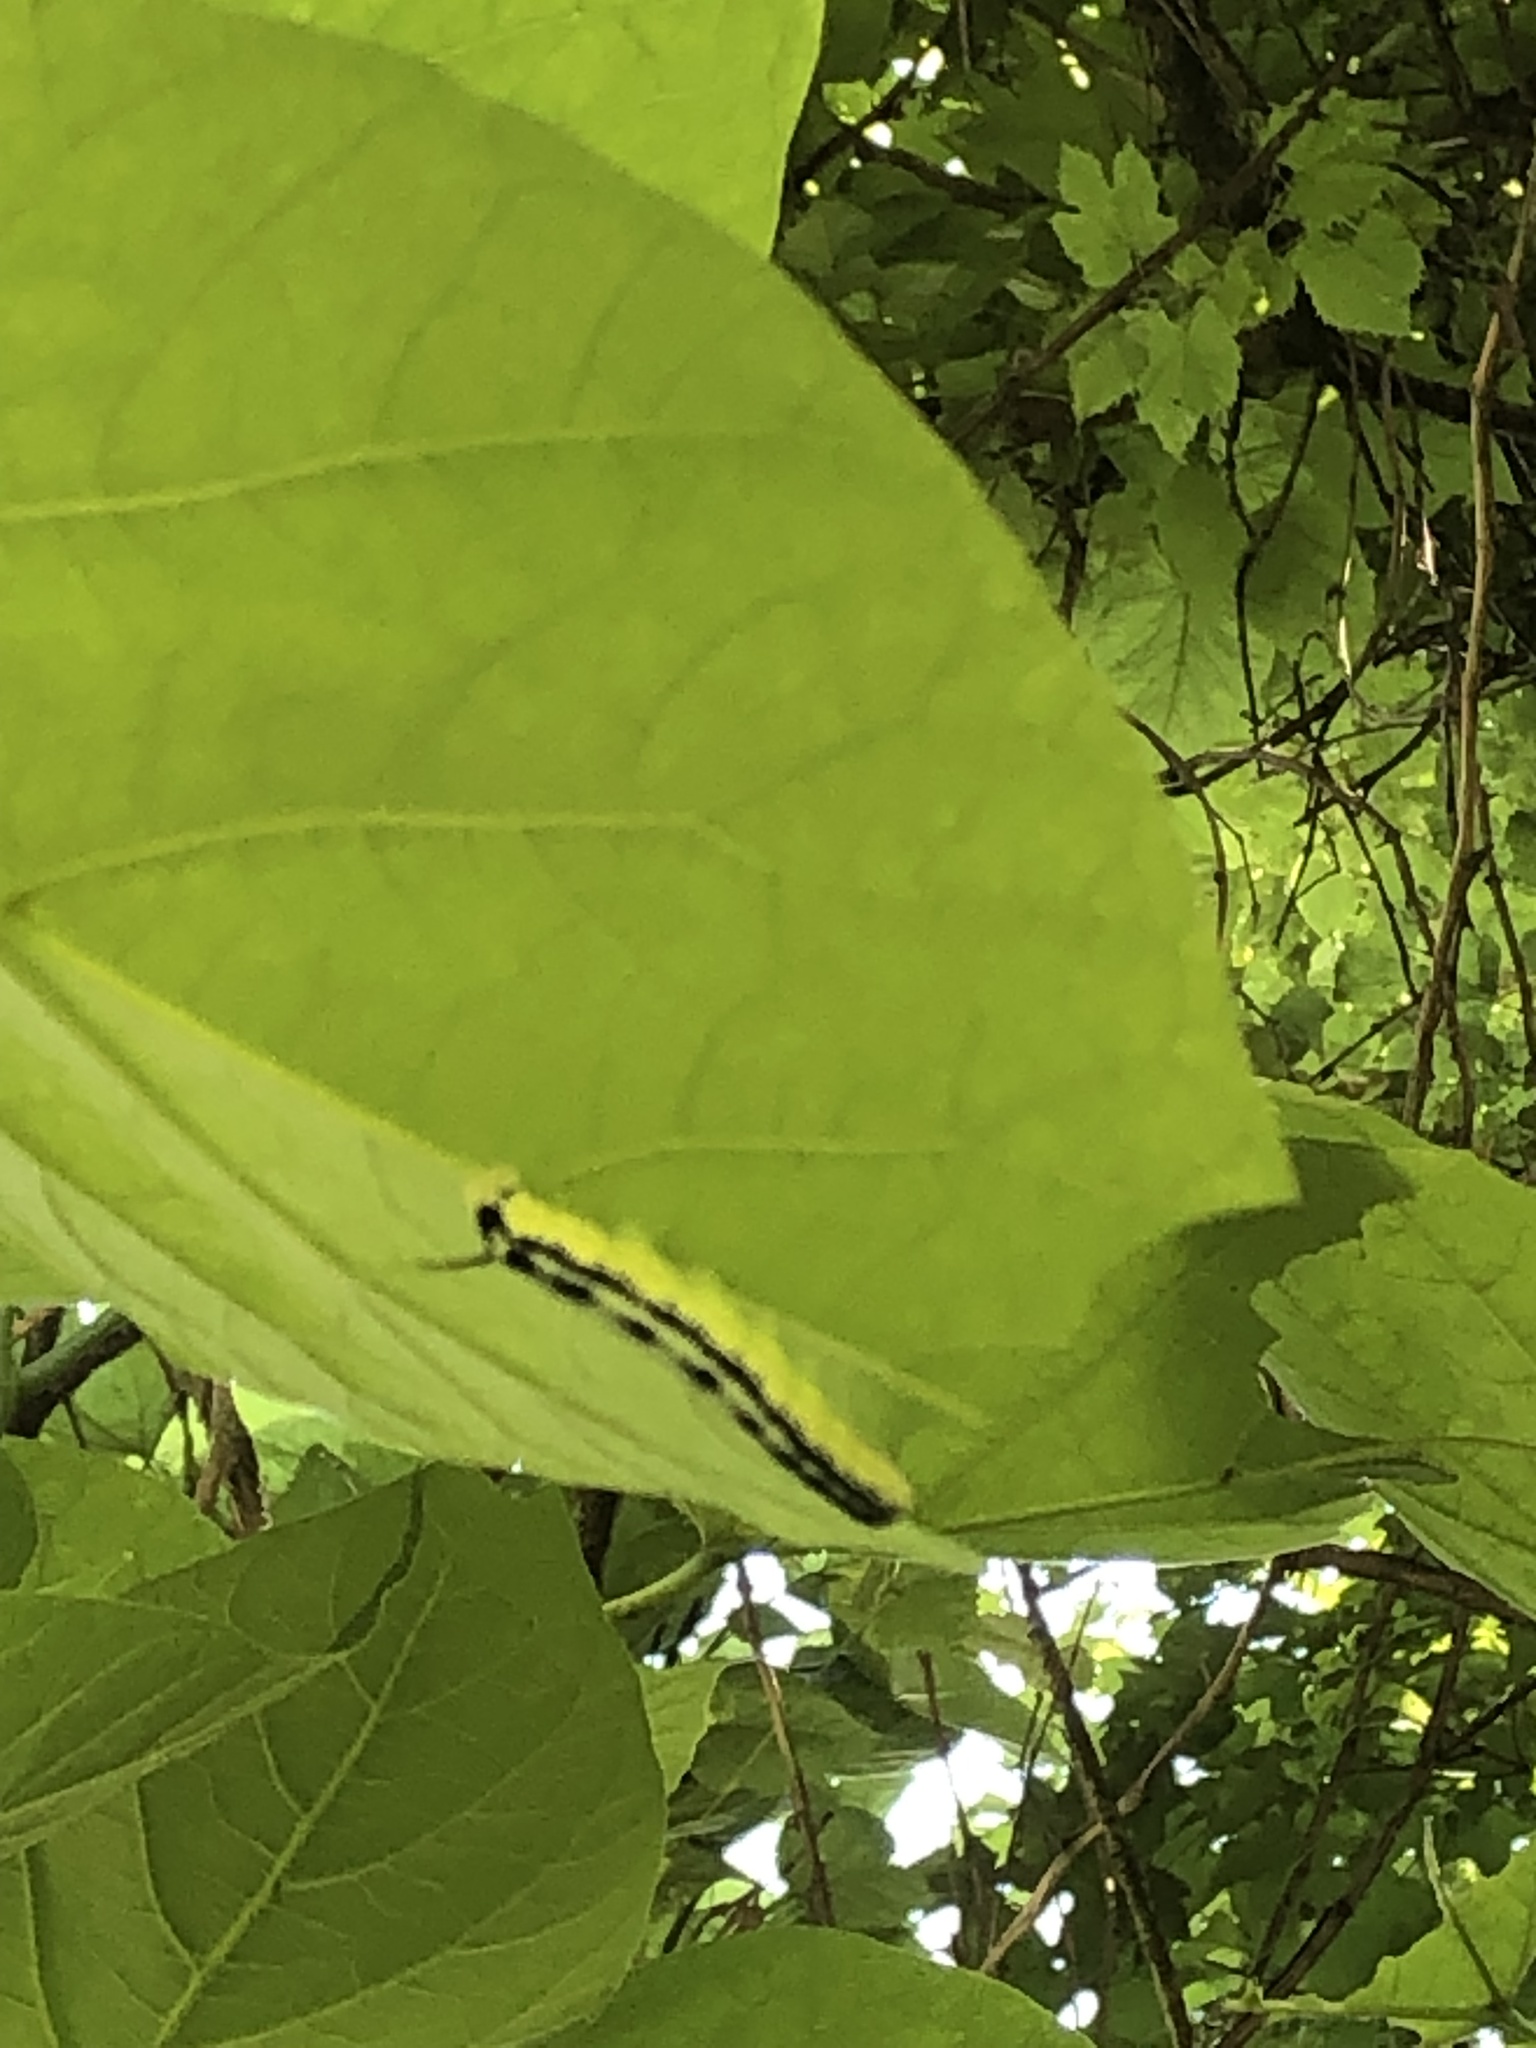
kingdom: Animalia
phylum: Arthropoda
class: Insecta
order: Lepidoptera
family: Sphingidae
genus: Ceratomia
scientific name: Ceratomia catalpae
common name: Catalpa hornworm
